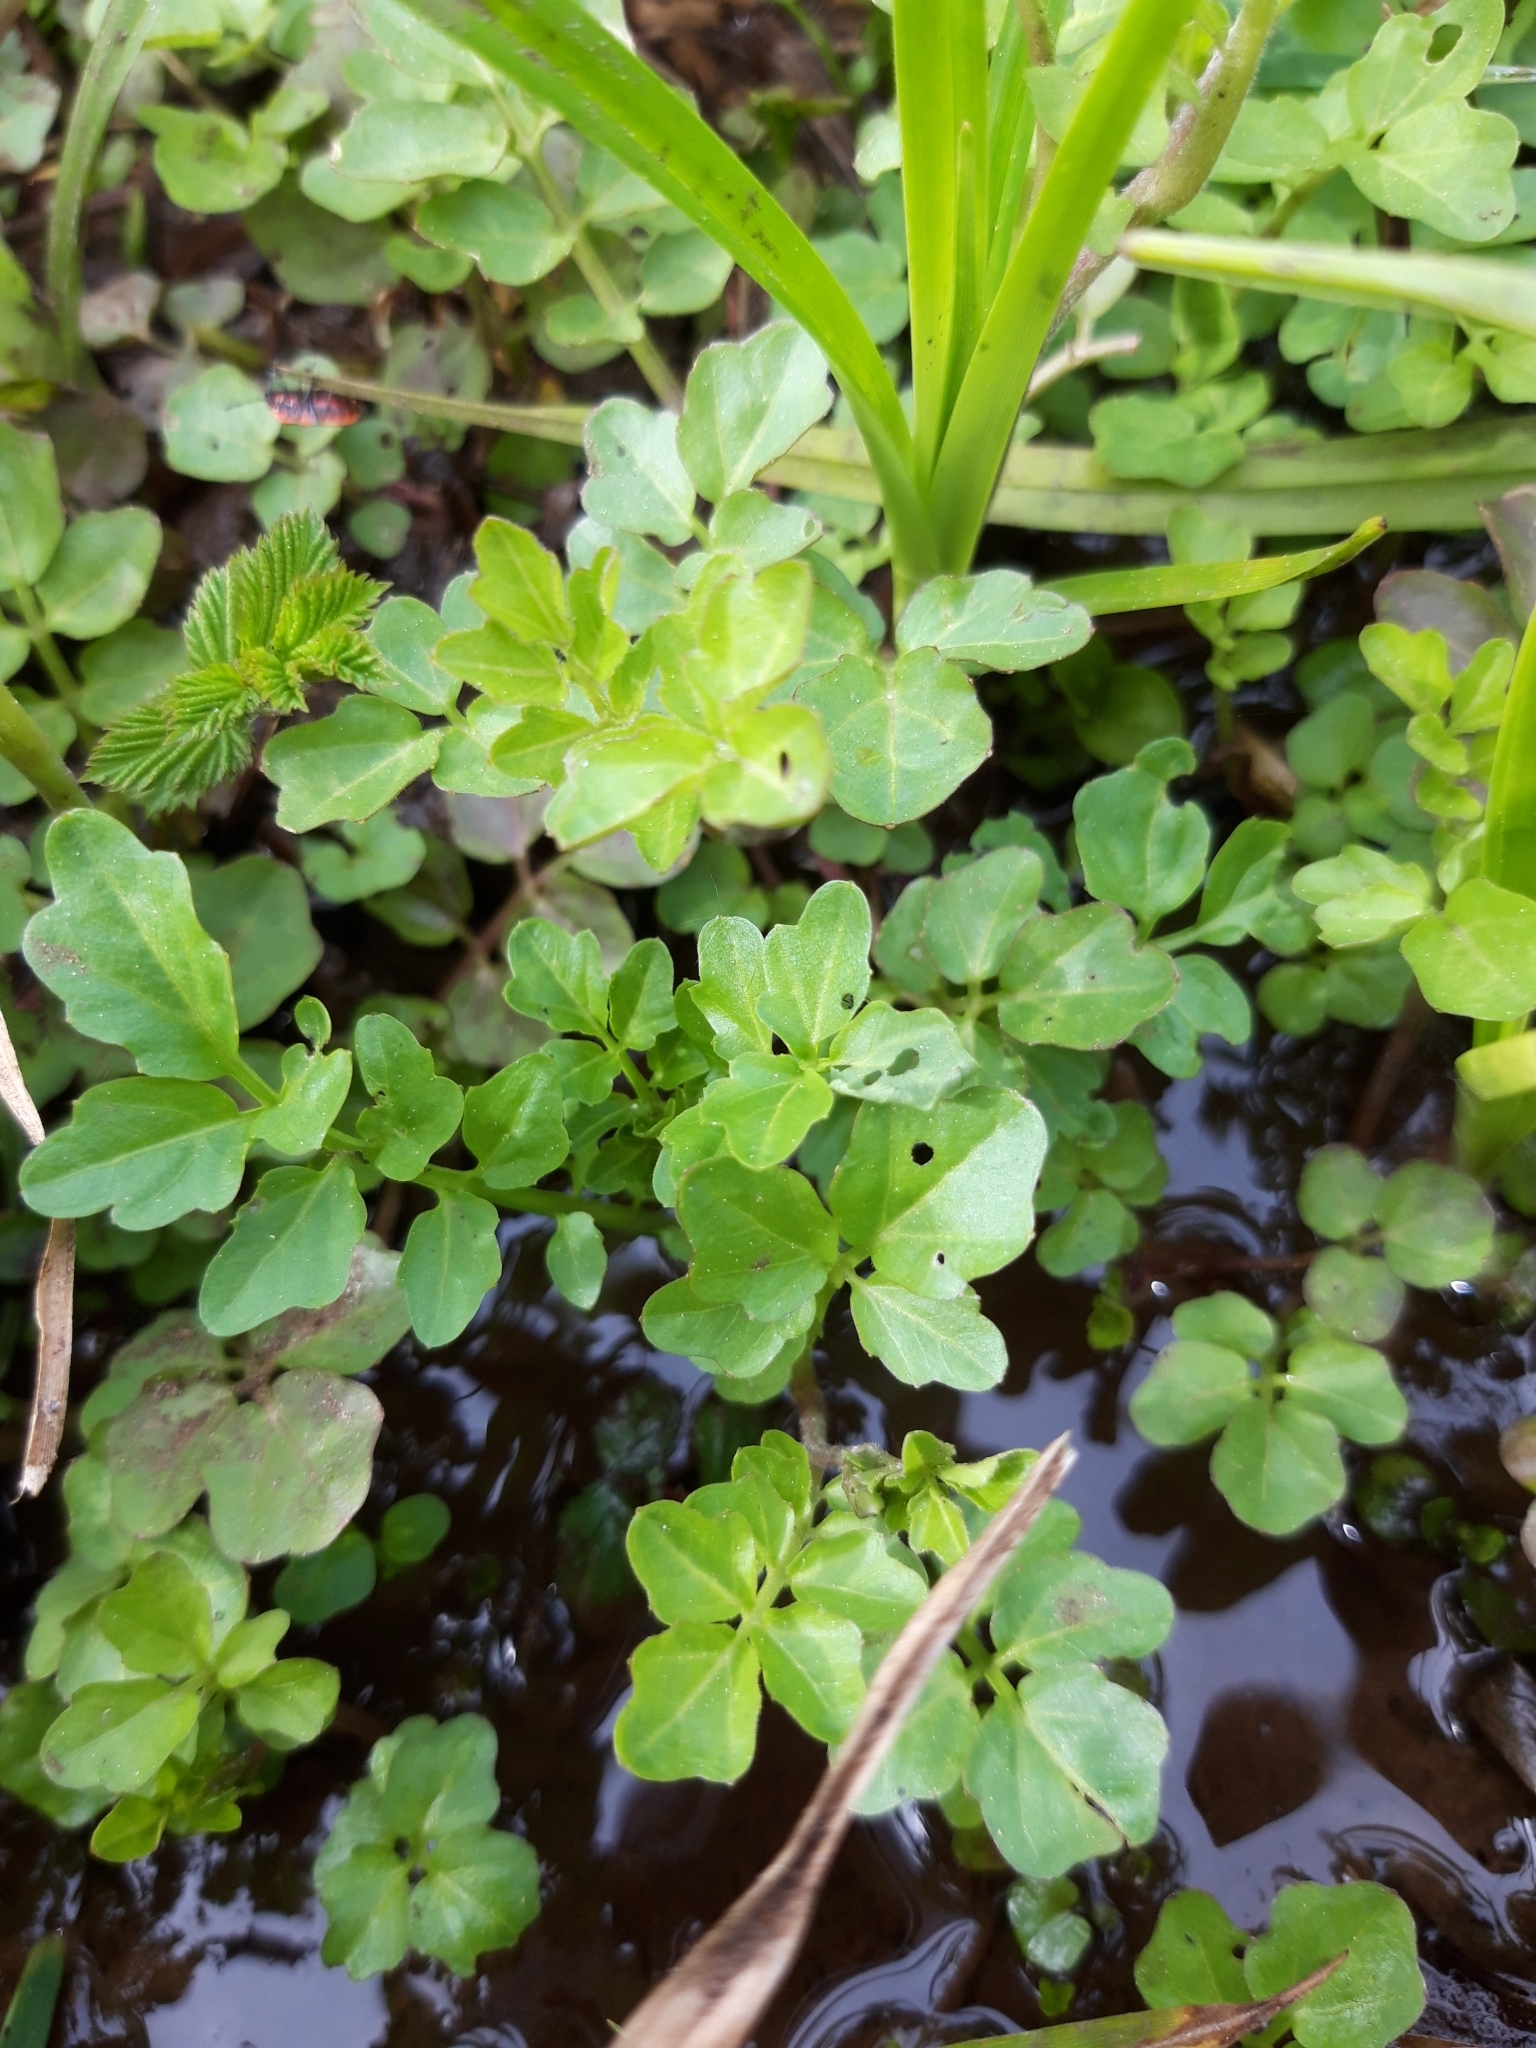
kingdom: Plantae
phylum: Tracheophyta
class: Magnoliopsida
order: Brassicales
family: Brassicaceae
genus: Cardamine
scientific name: Cardamine amara
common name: Large bitter-cress
